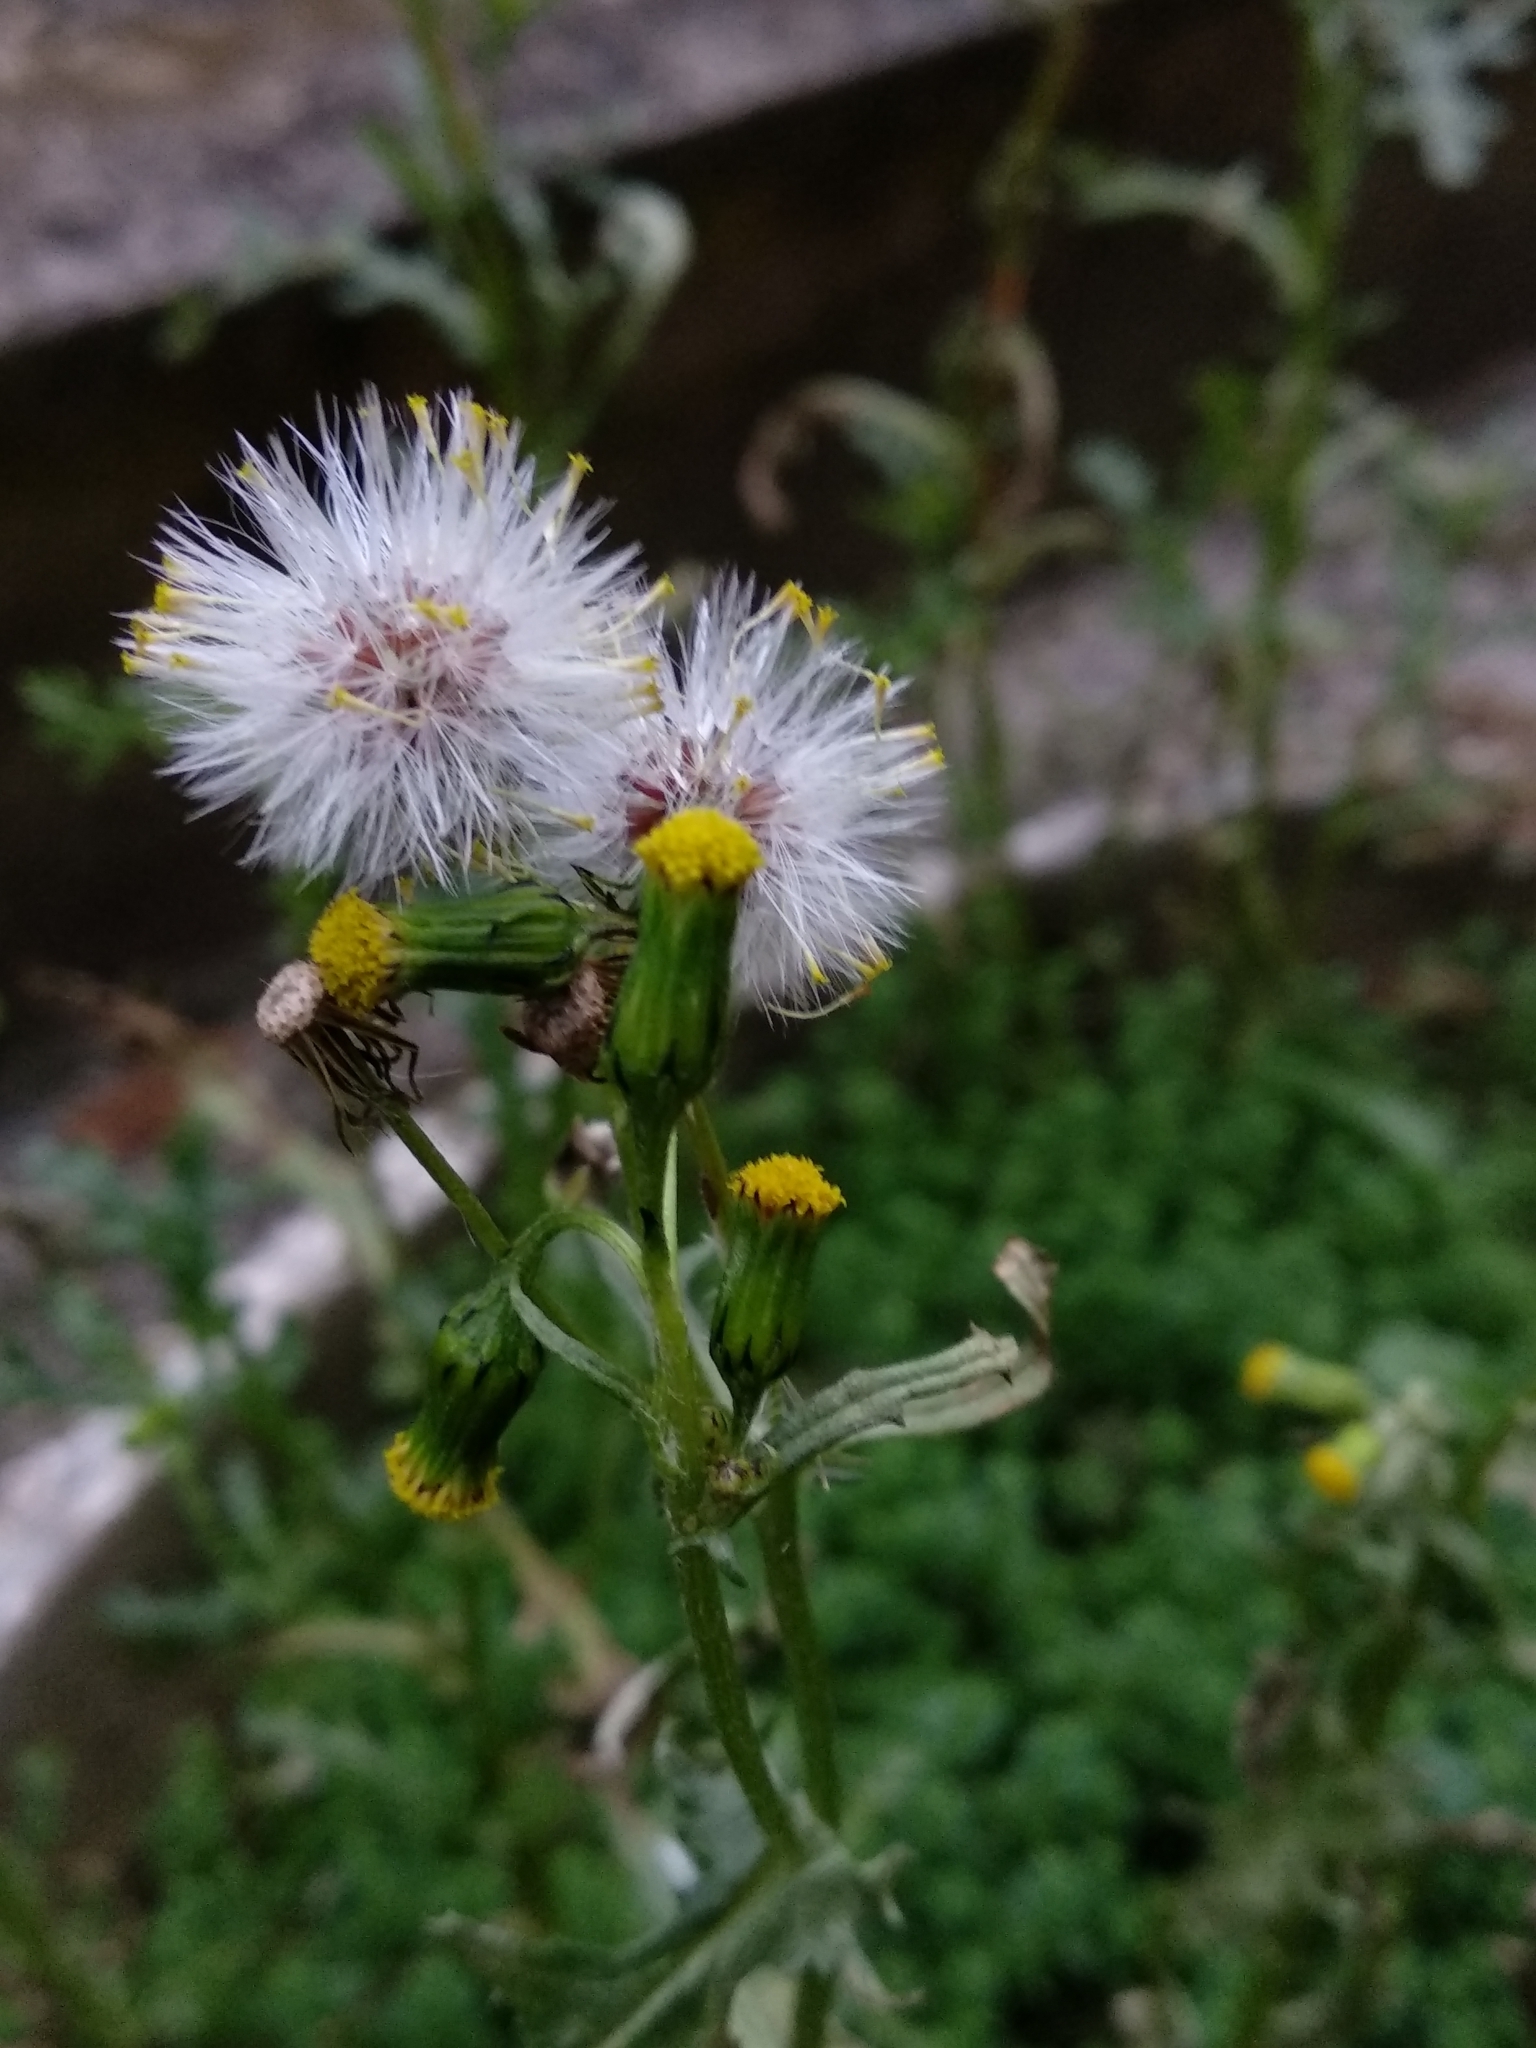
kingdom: Plantae
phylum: Tracheophyta
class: Magnoliopsida
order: Asterales
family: Asteraceae
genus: Senecio
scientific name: Senecio vulgaris
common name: Old-man-in-the-spring
